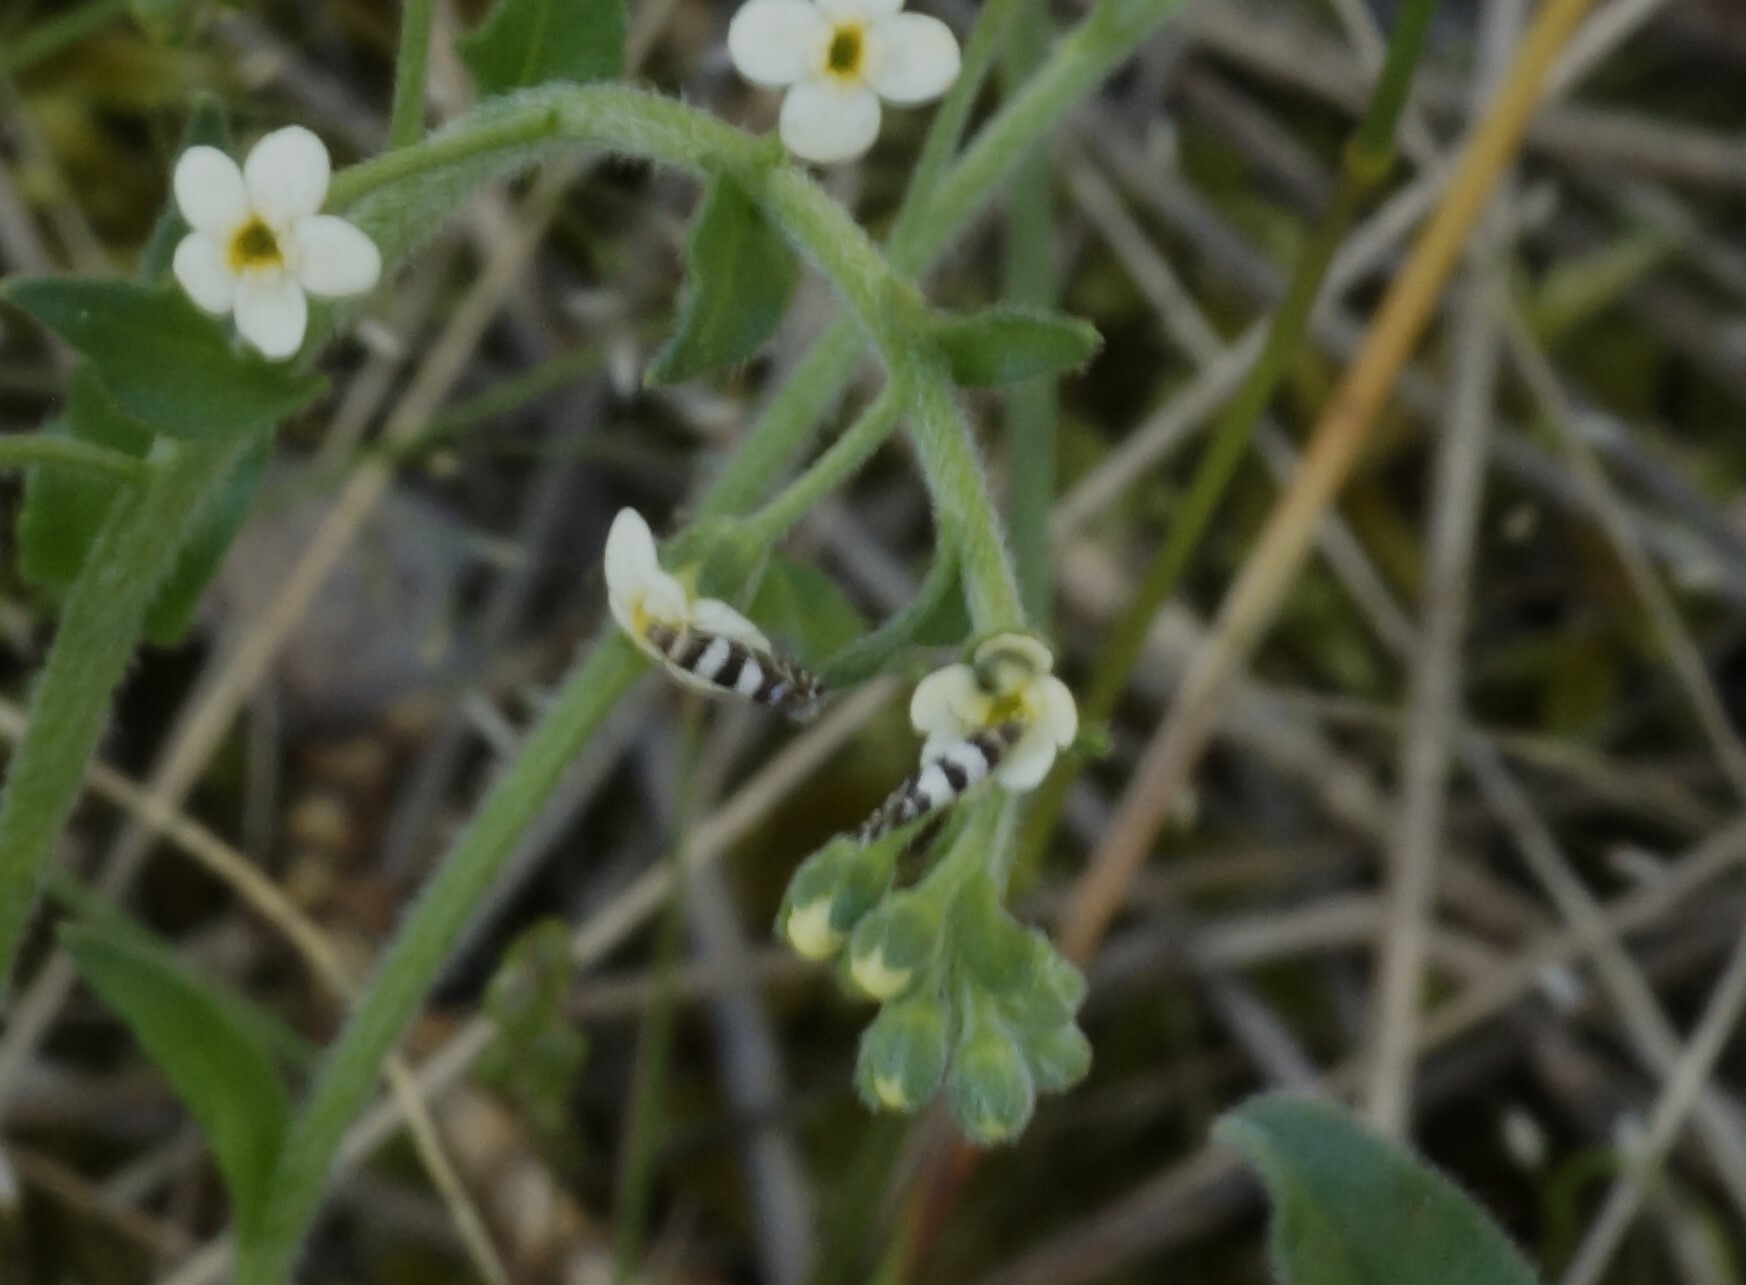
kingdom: Animalia
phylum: Arthropoda
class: Insecta
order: Lepidoptera
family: Glyphipterigidae
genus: Glyphipterix
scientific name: Glyphipterix meteora
